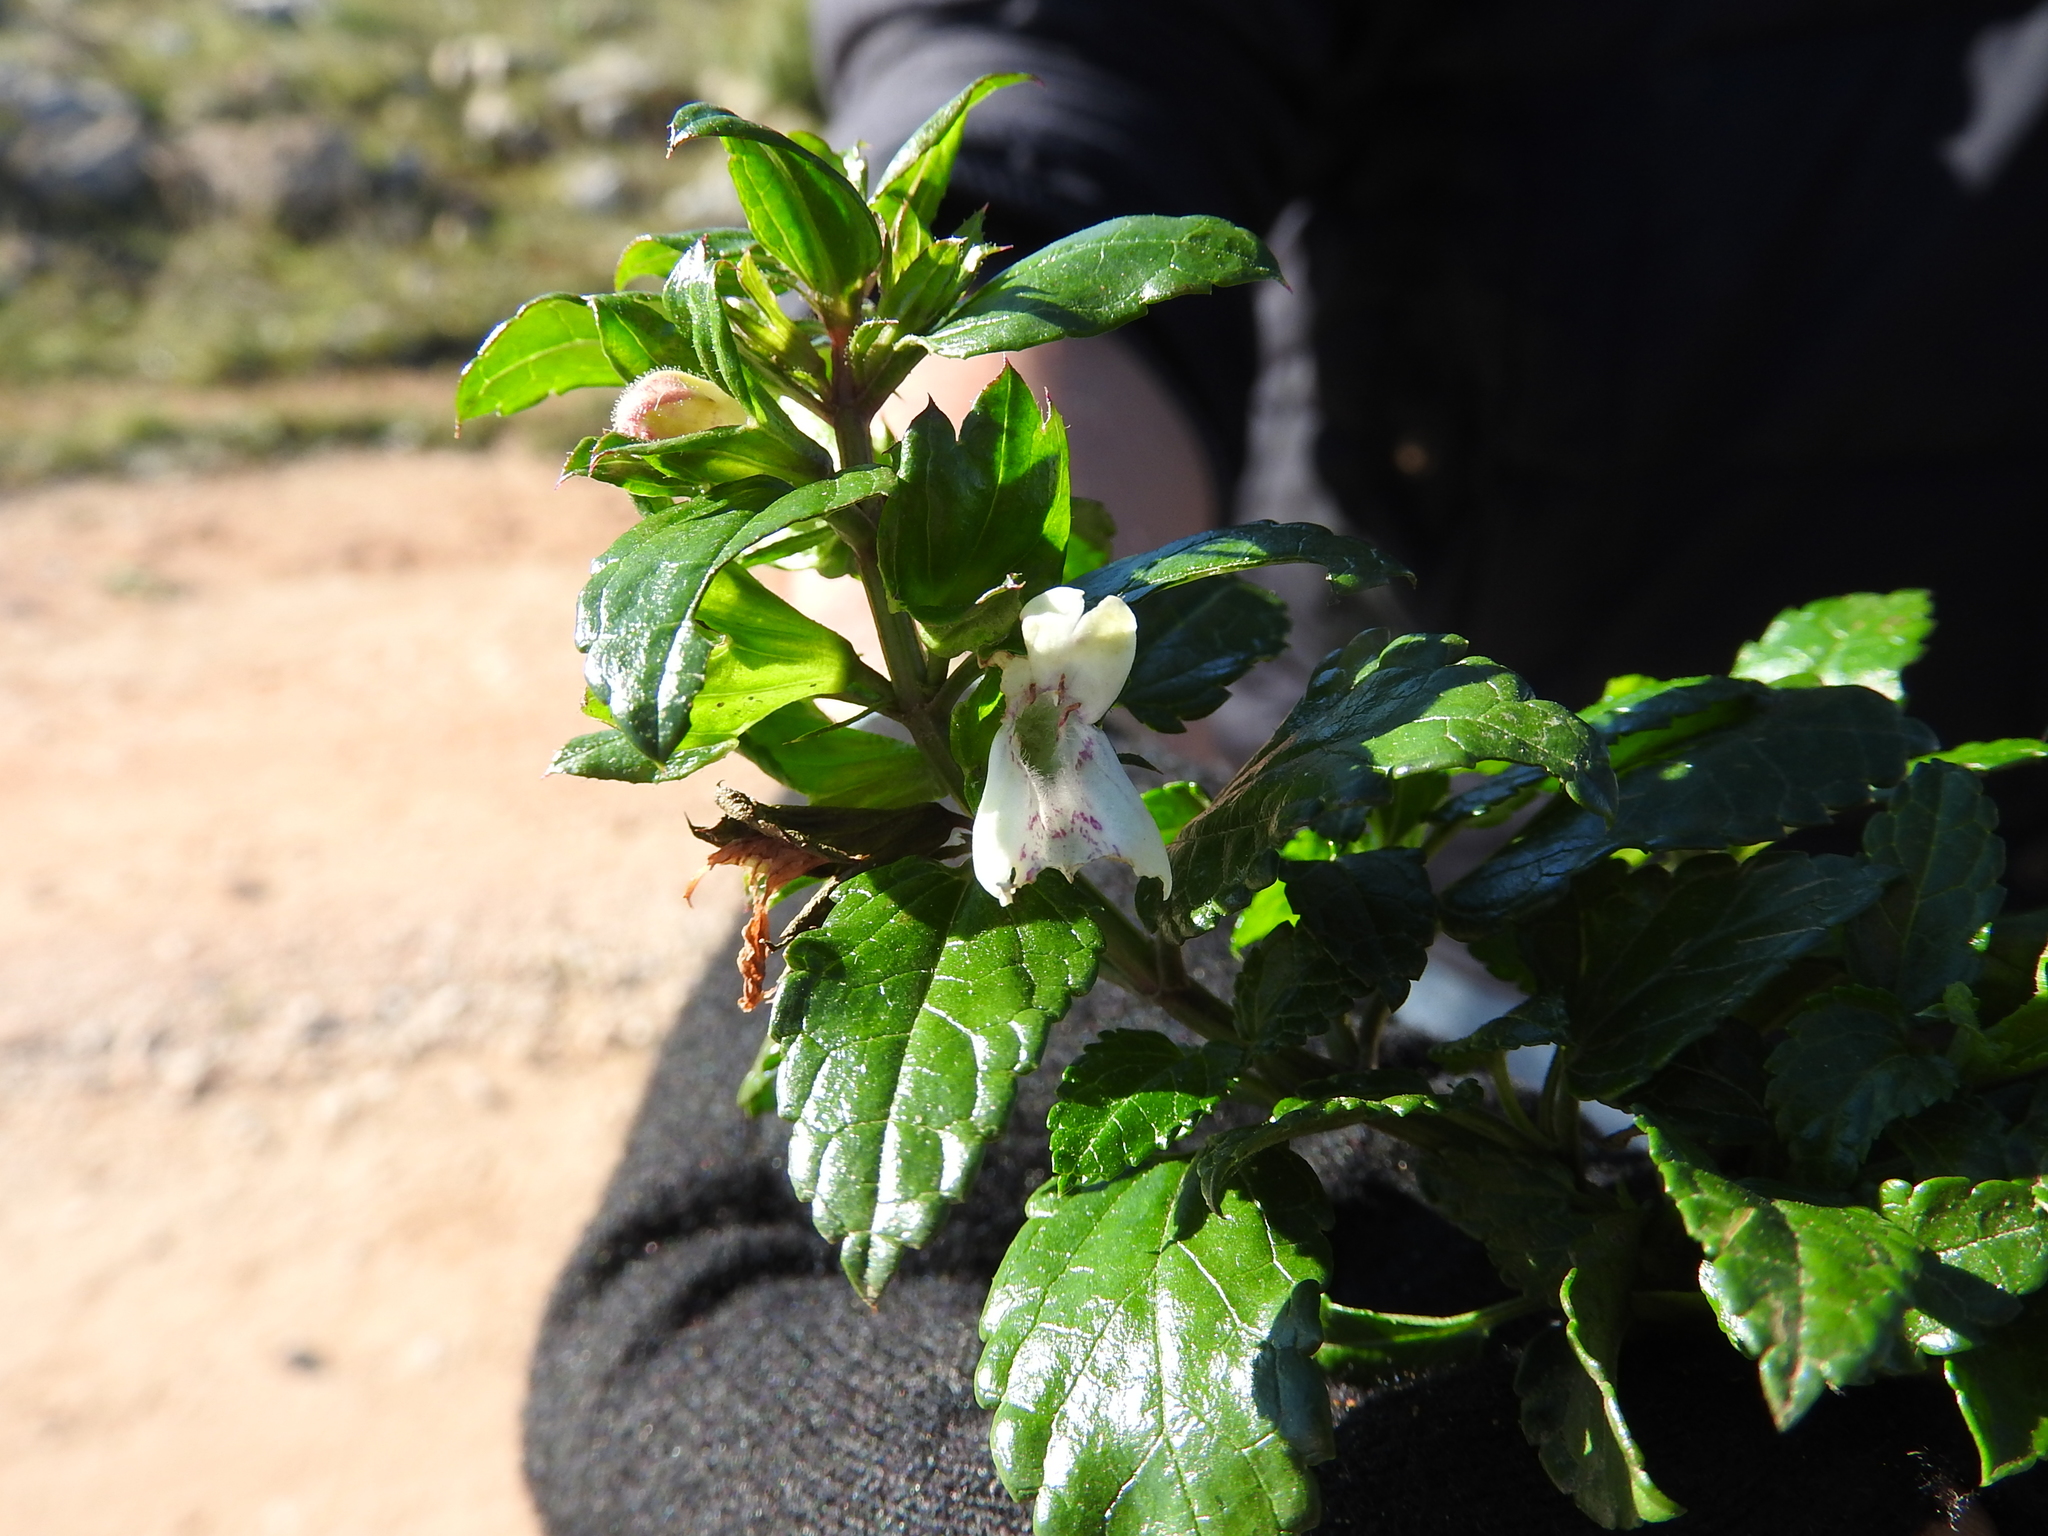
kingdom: Plantae
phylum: Tracheophyta
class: Magnoliopsida
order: Lamiales
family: Lamiaceae
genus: Prasium
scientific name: Prasium majus
